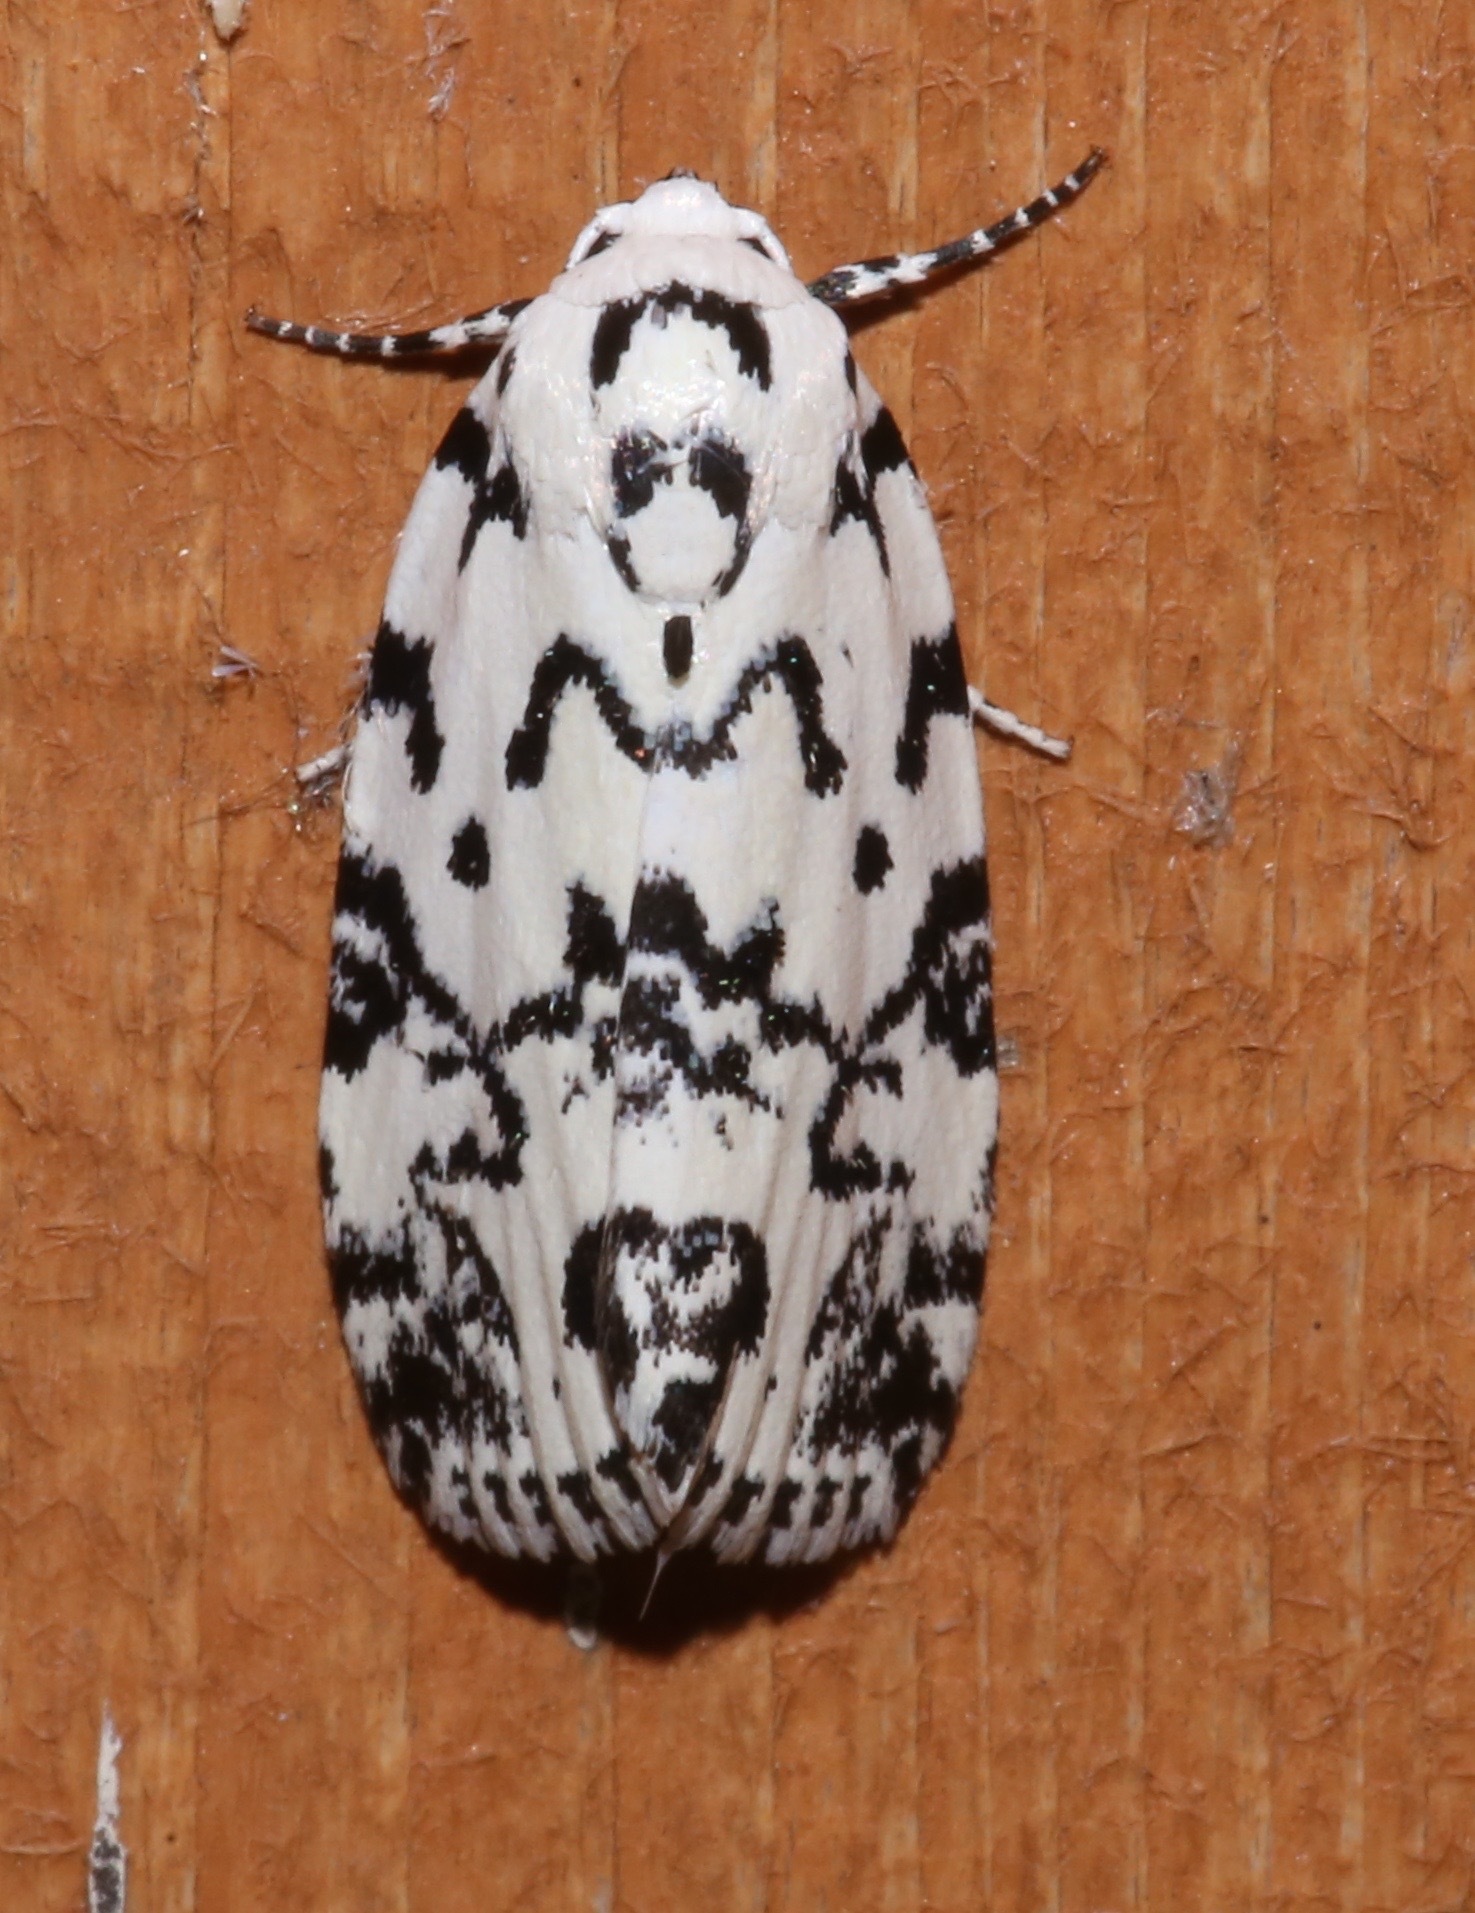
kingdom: Animalia
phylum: Arthropoda
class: Insecta
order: Lepidoptera
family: Noctuidae
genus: Polygrammate
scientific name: Polygrammate hebraeicum
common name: Hebrew moth
